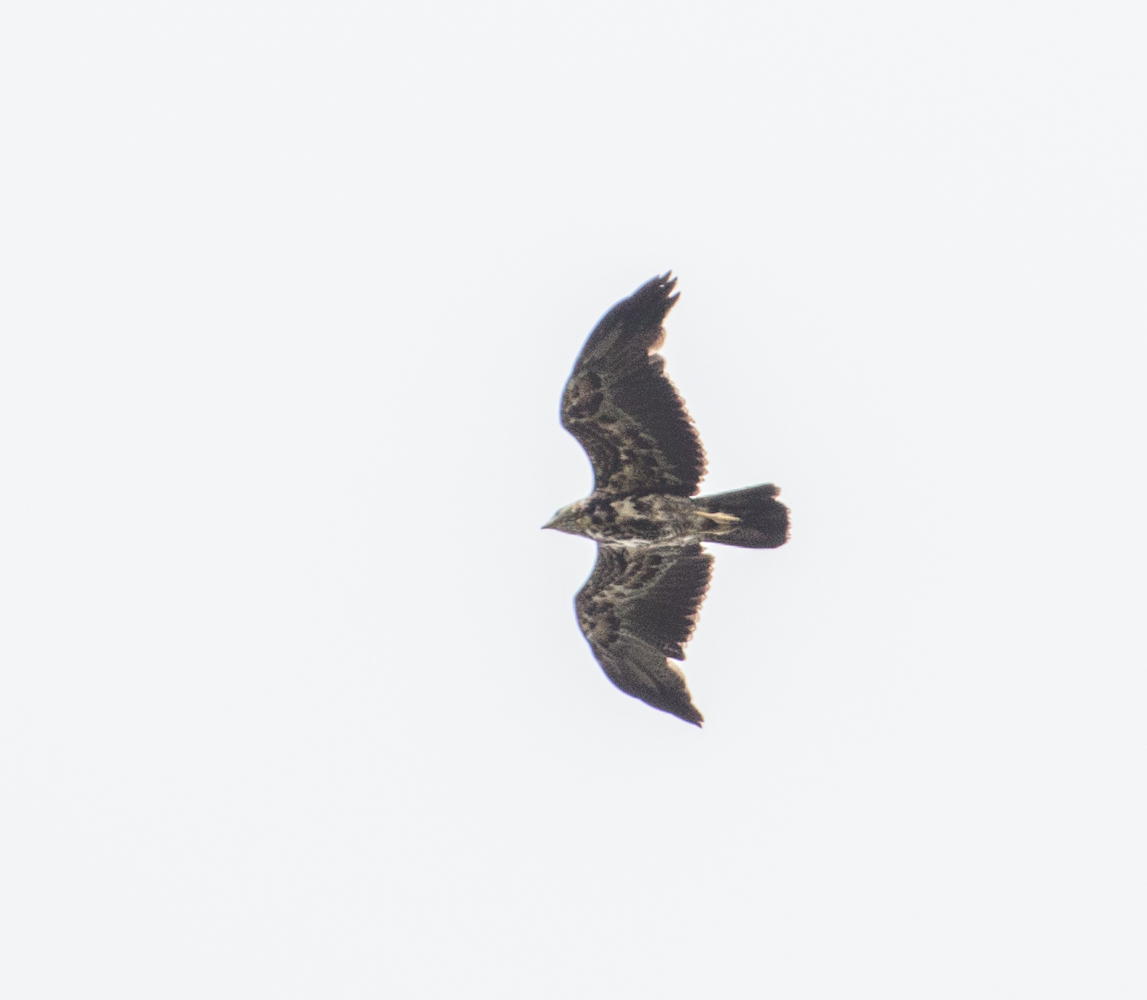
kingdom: Animalia
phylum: Chordata
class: Aves
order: Accipitriformes
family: Accipitridae
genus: Geranoaetus
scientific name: Geranoaetus melanoleucus
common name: Black-chested buzzard-eagle
